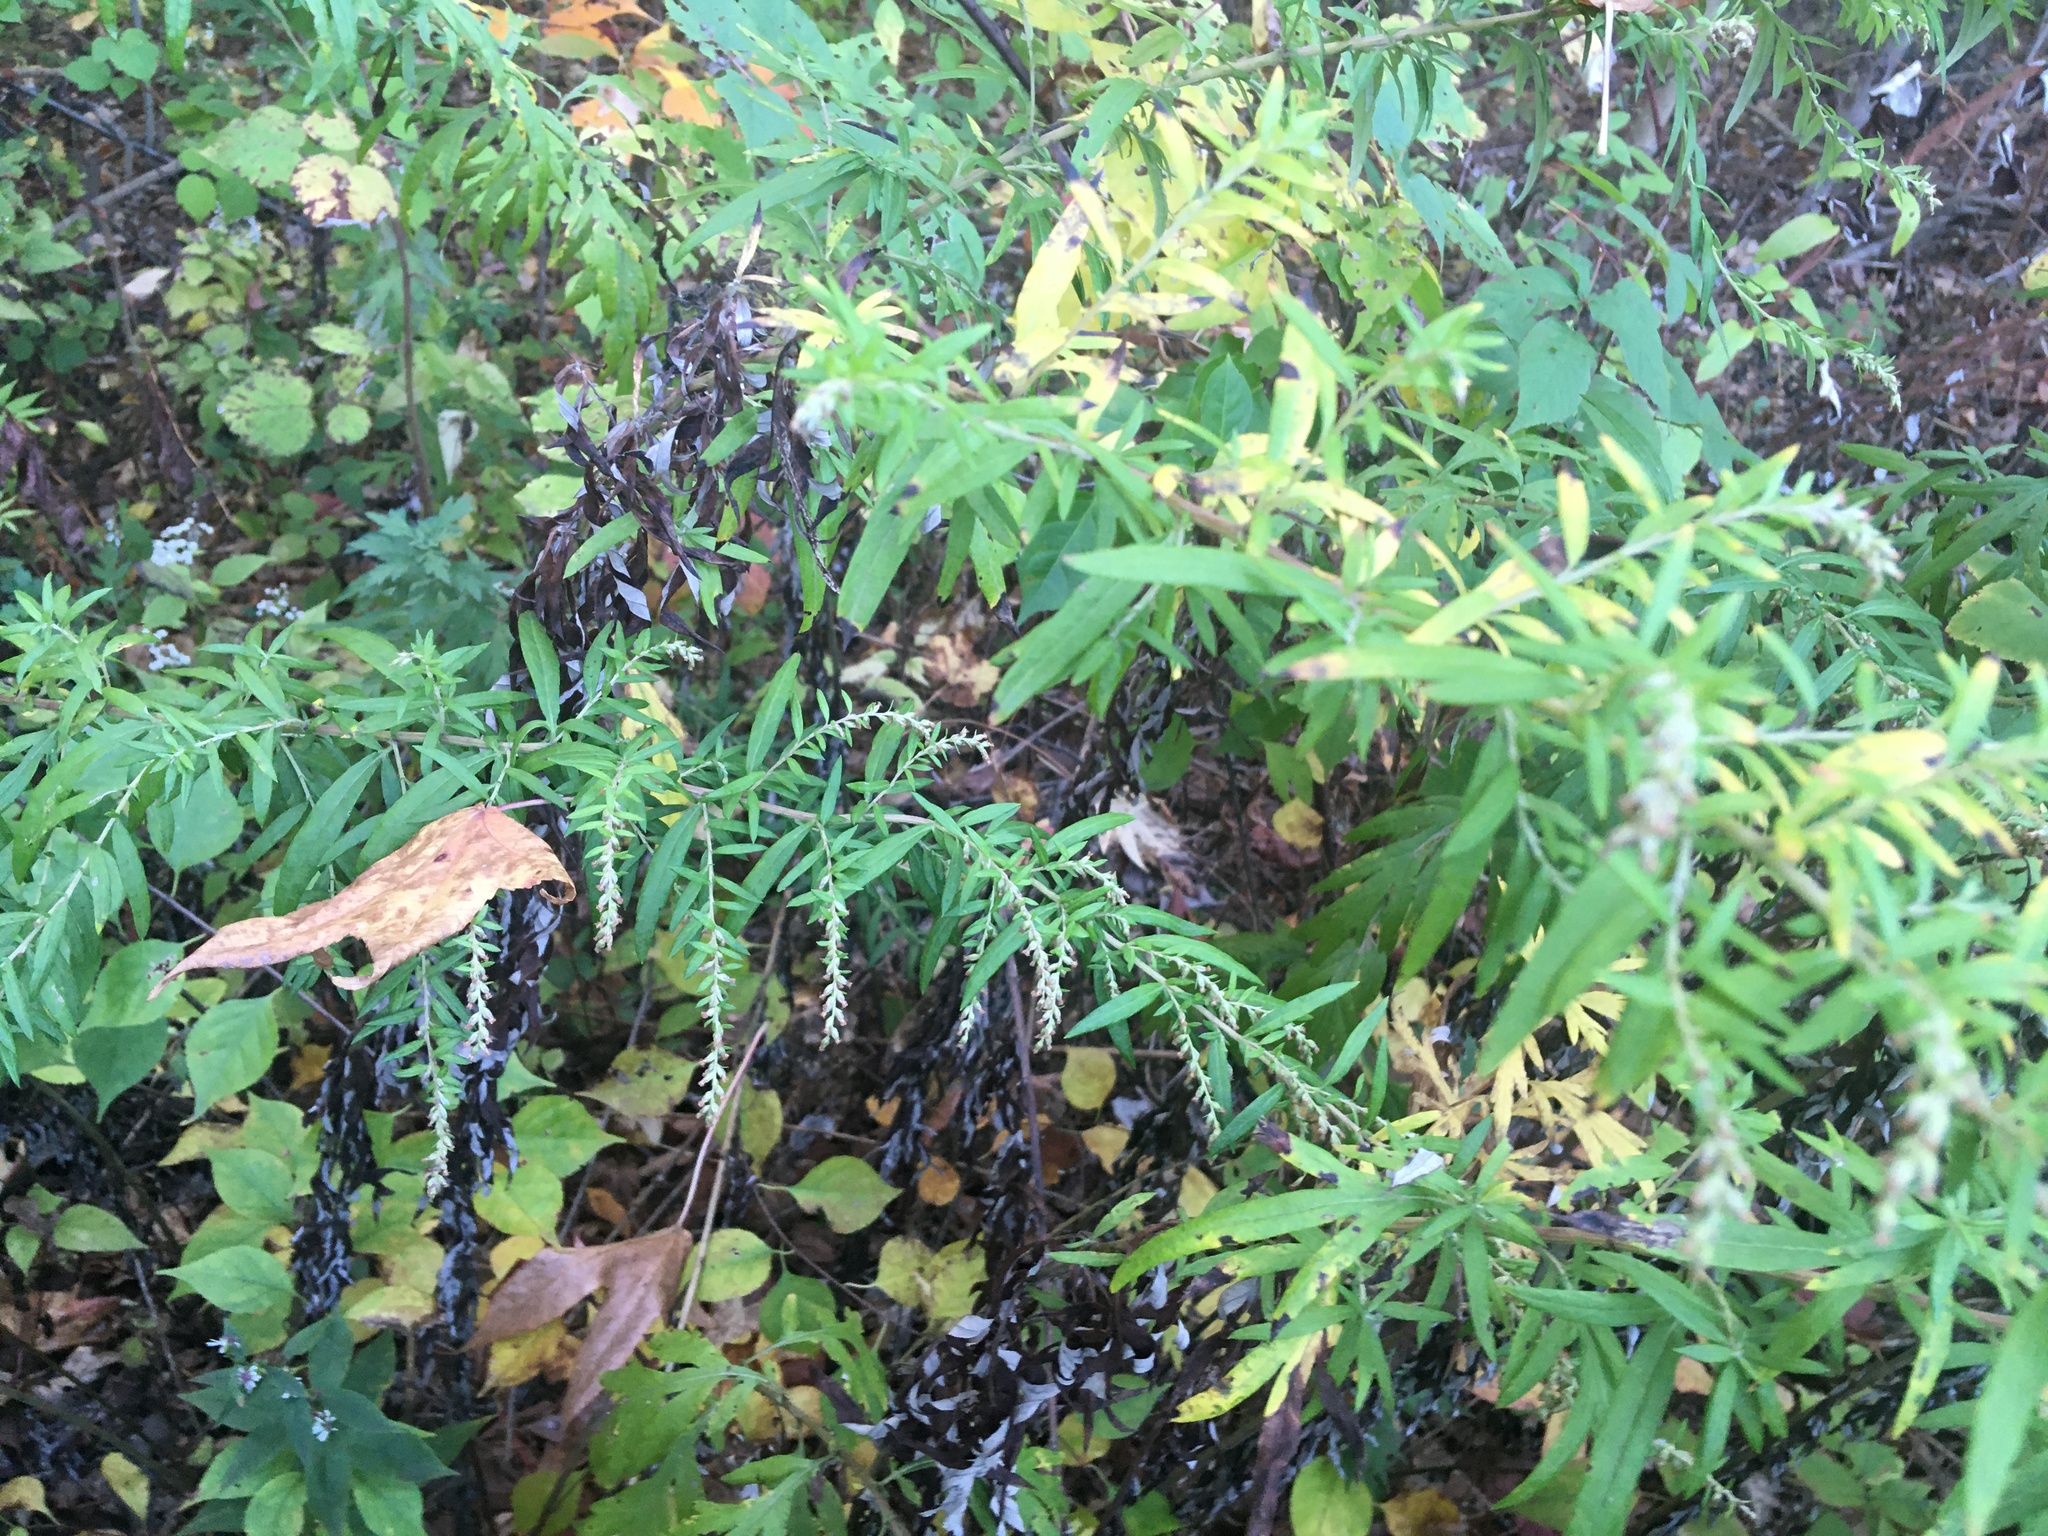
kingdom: Plantae
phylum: Tracheophyta
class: Magnoliopsida
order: Asterales
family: Asteraceae
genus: Artemisia
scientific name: Artemisia vulgaris
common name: Mugwort
